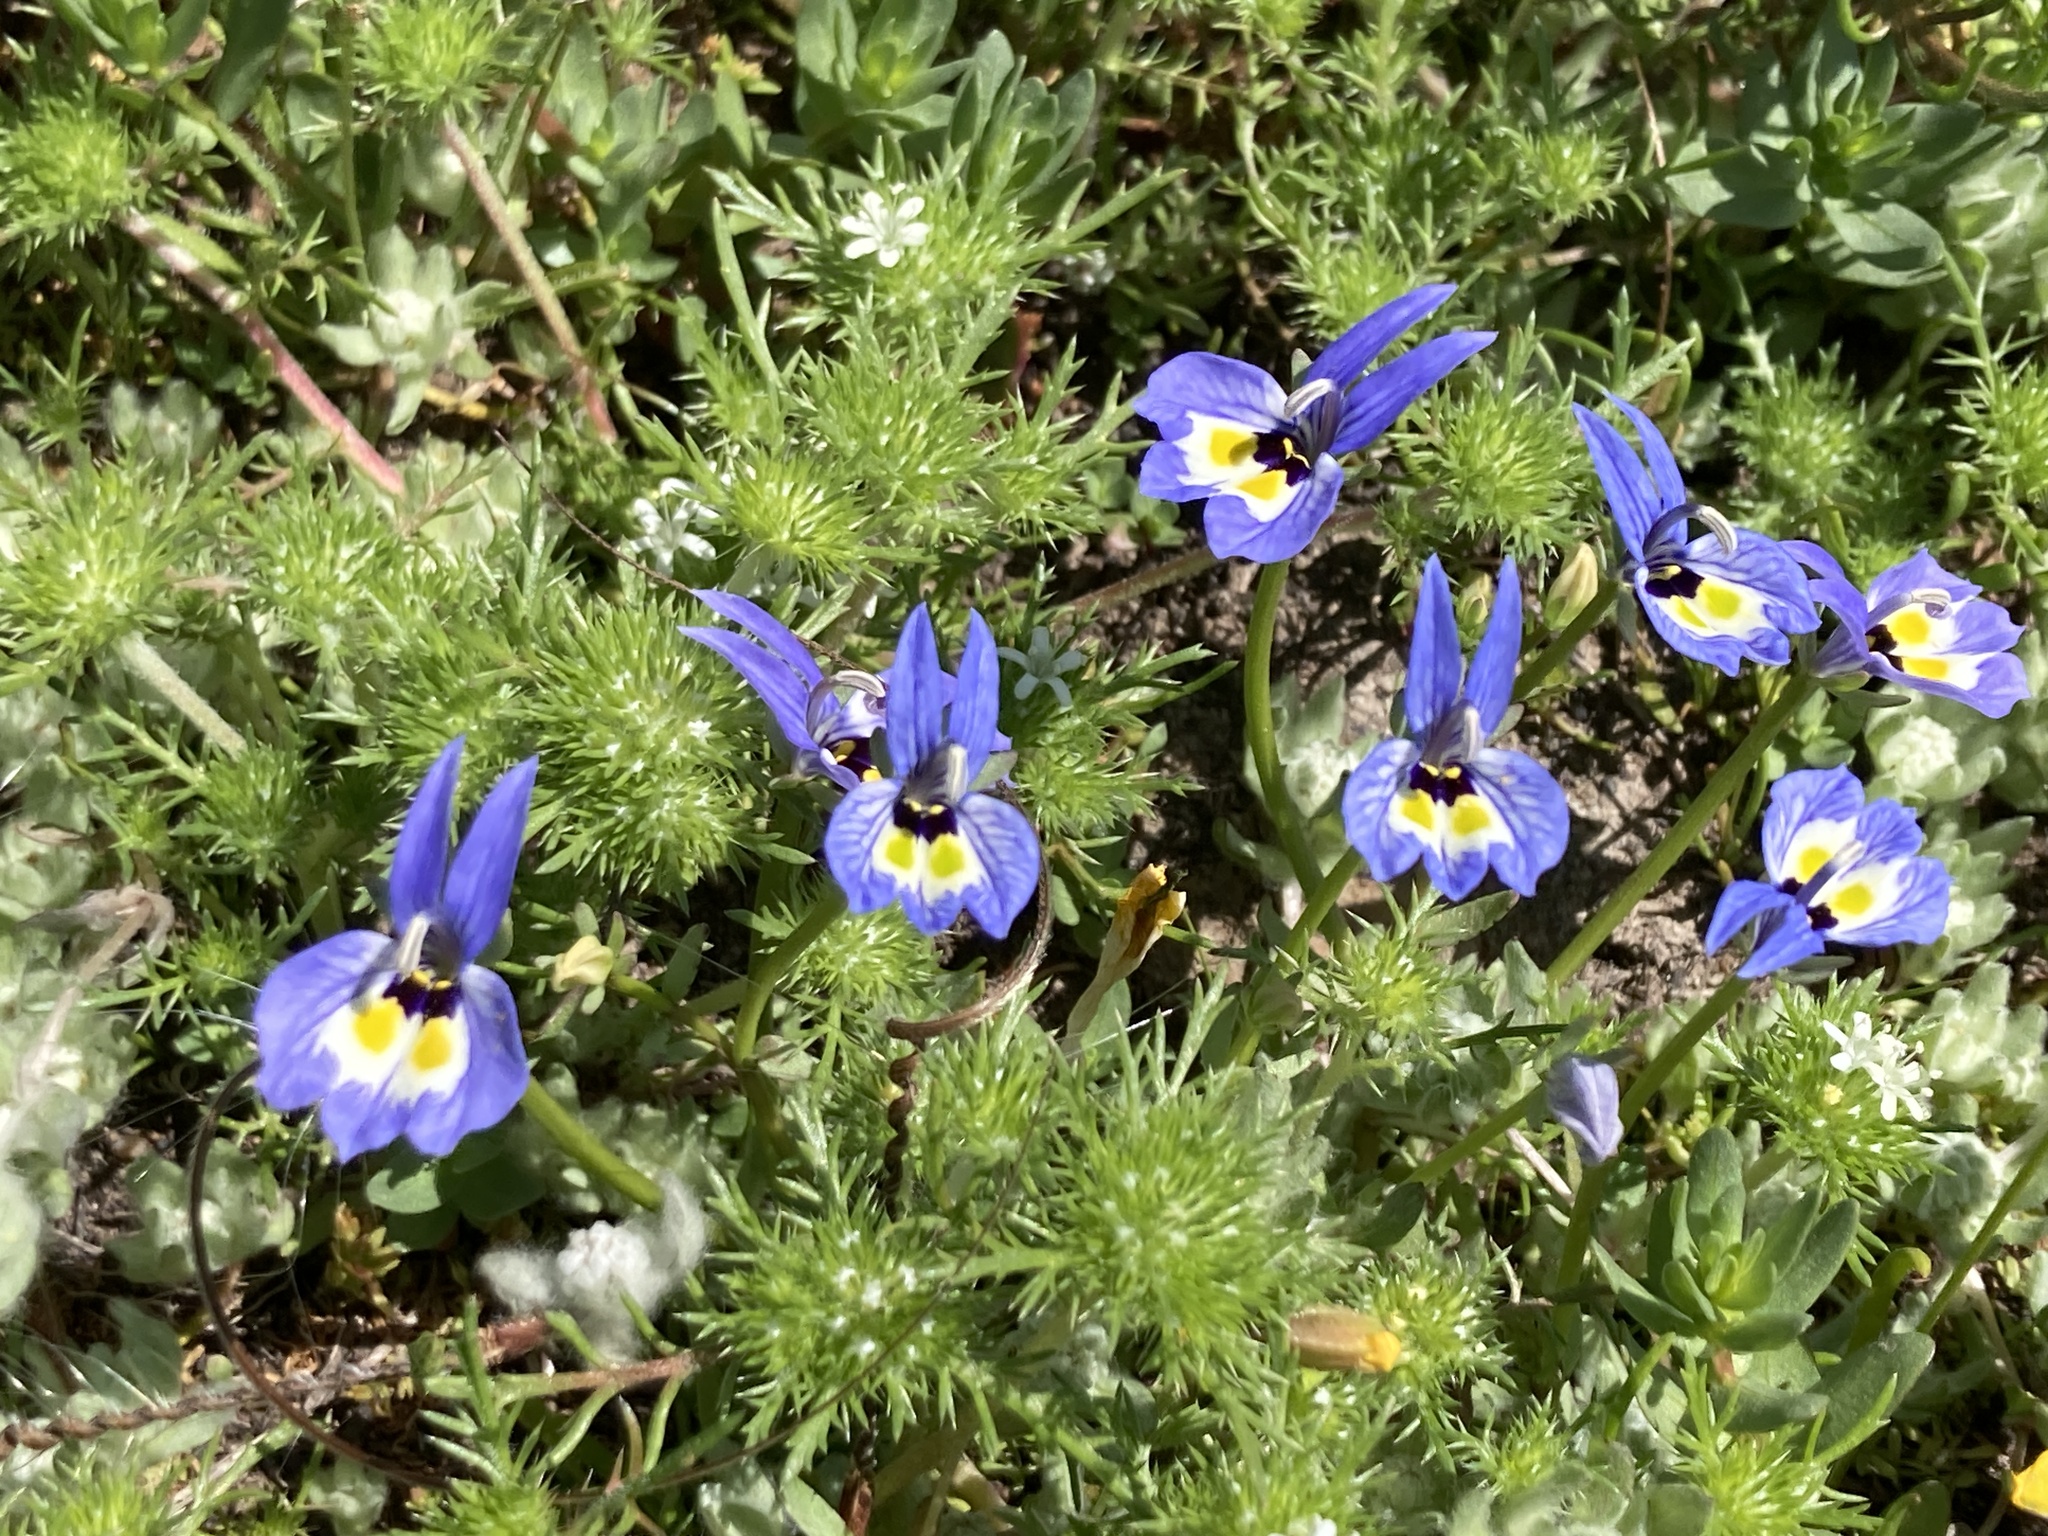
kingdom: Plantae
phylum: Tracheophyta
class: Magnoliopsida
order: Asterales
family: Campanulaceae
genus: Downingia
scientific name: Downingia insignis
